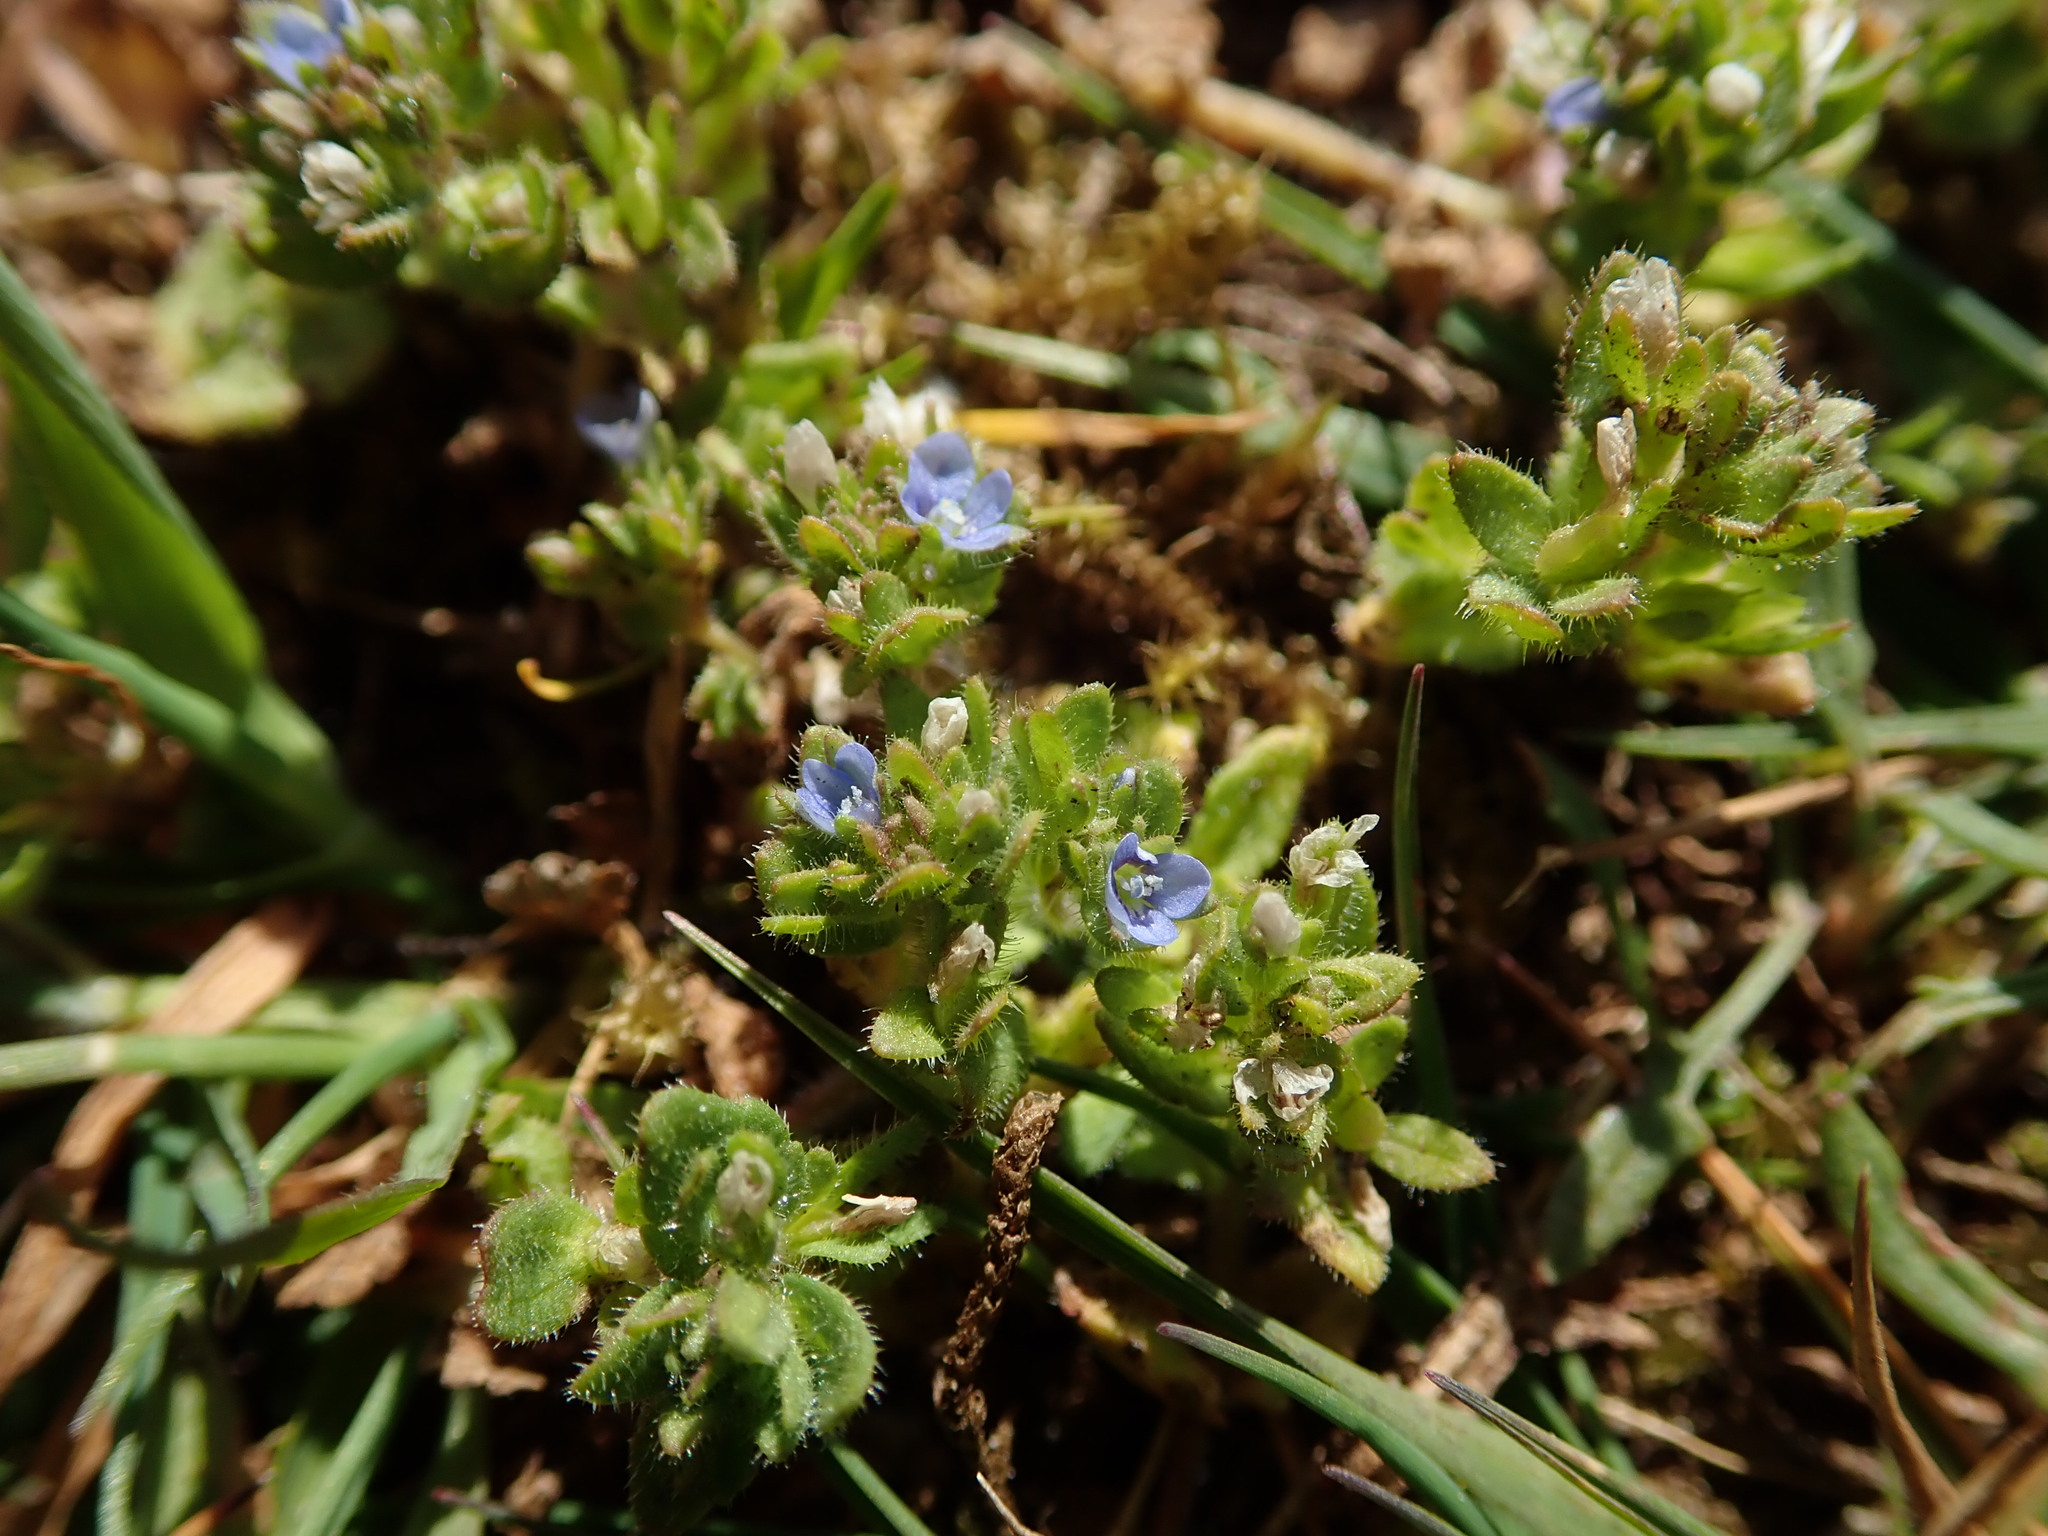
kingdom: Plantae
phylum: Tracheophyta
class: Magnoliopsida
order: Lamiales
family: Plantaginaceae
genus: Veronica
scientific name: Veronica arvensis
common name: Corn speedwell
